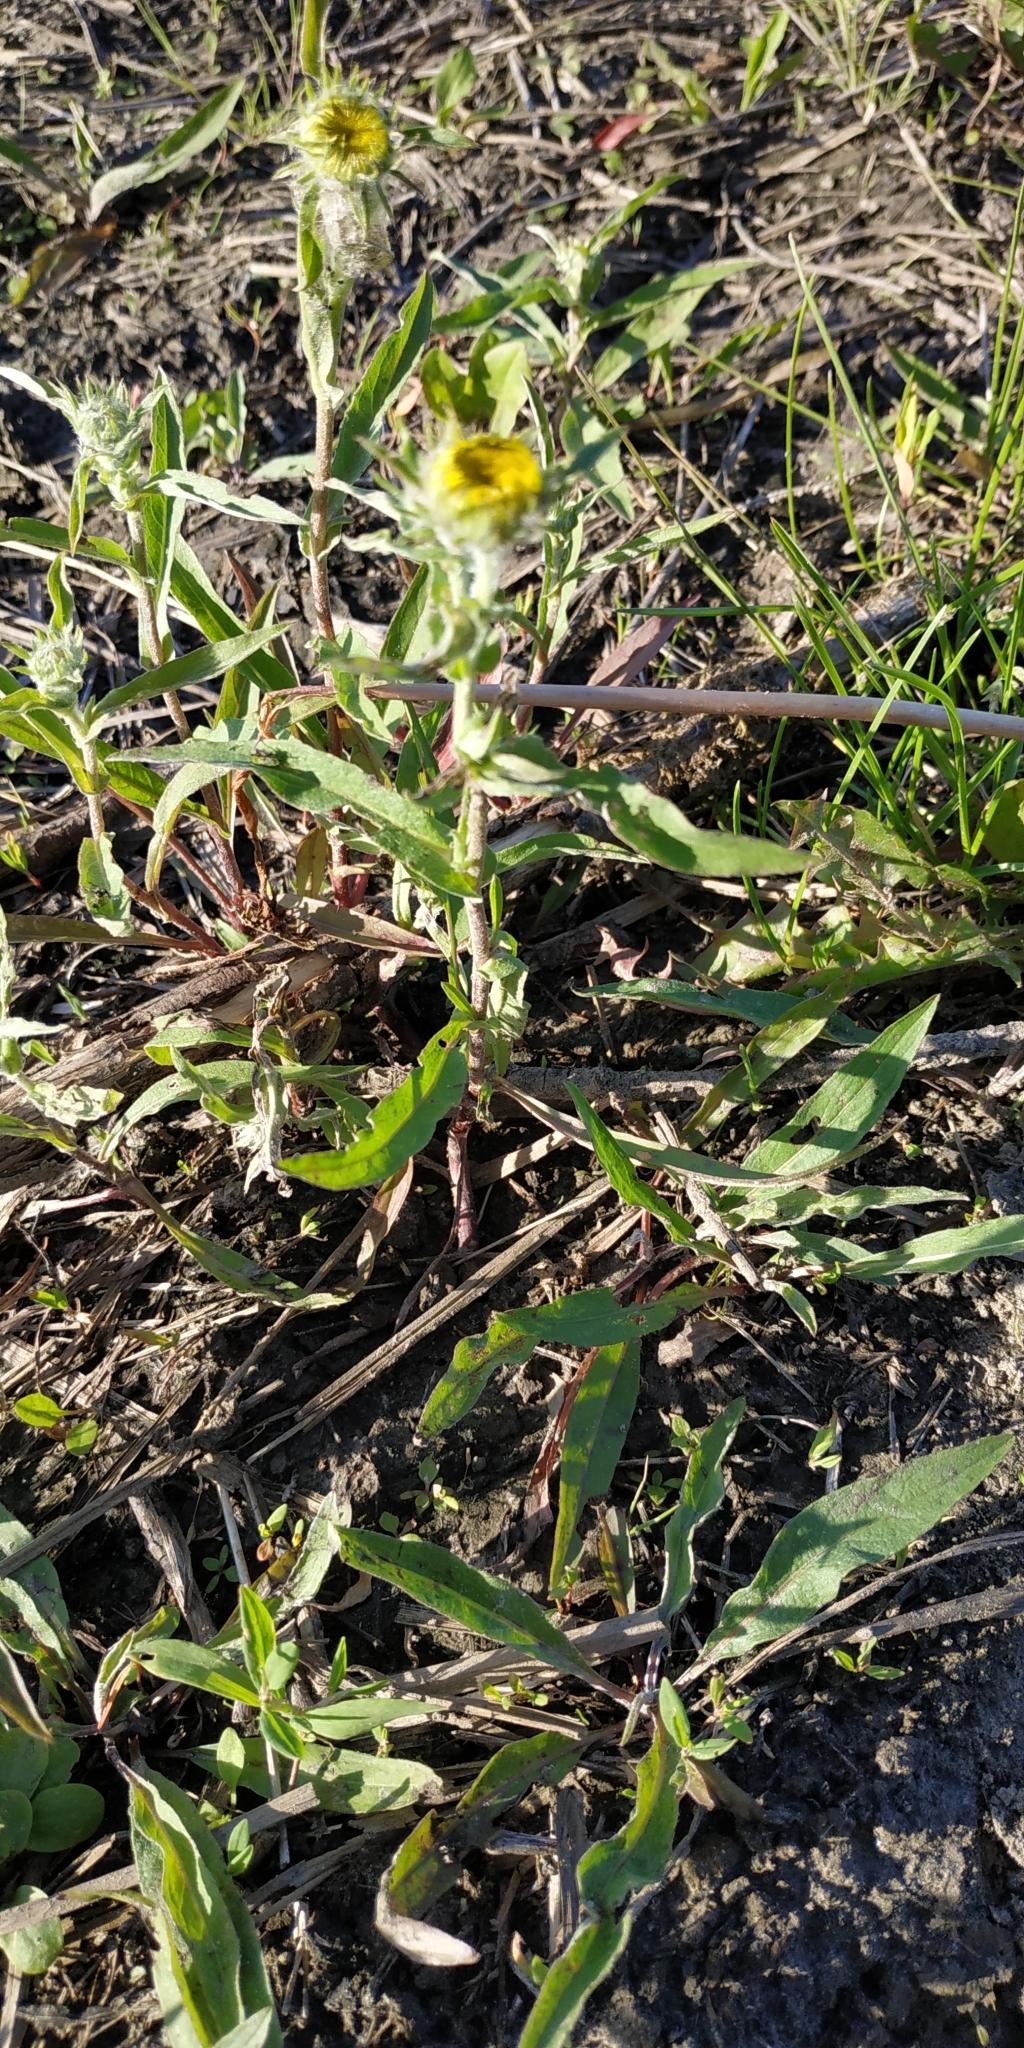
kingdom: Plantae
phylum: Tracheophyta
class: Magnoliopsida
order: Asterales
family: Asteraceae
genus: Pentanema
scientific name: Pentanema britannicum
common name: British elecampane
